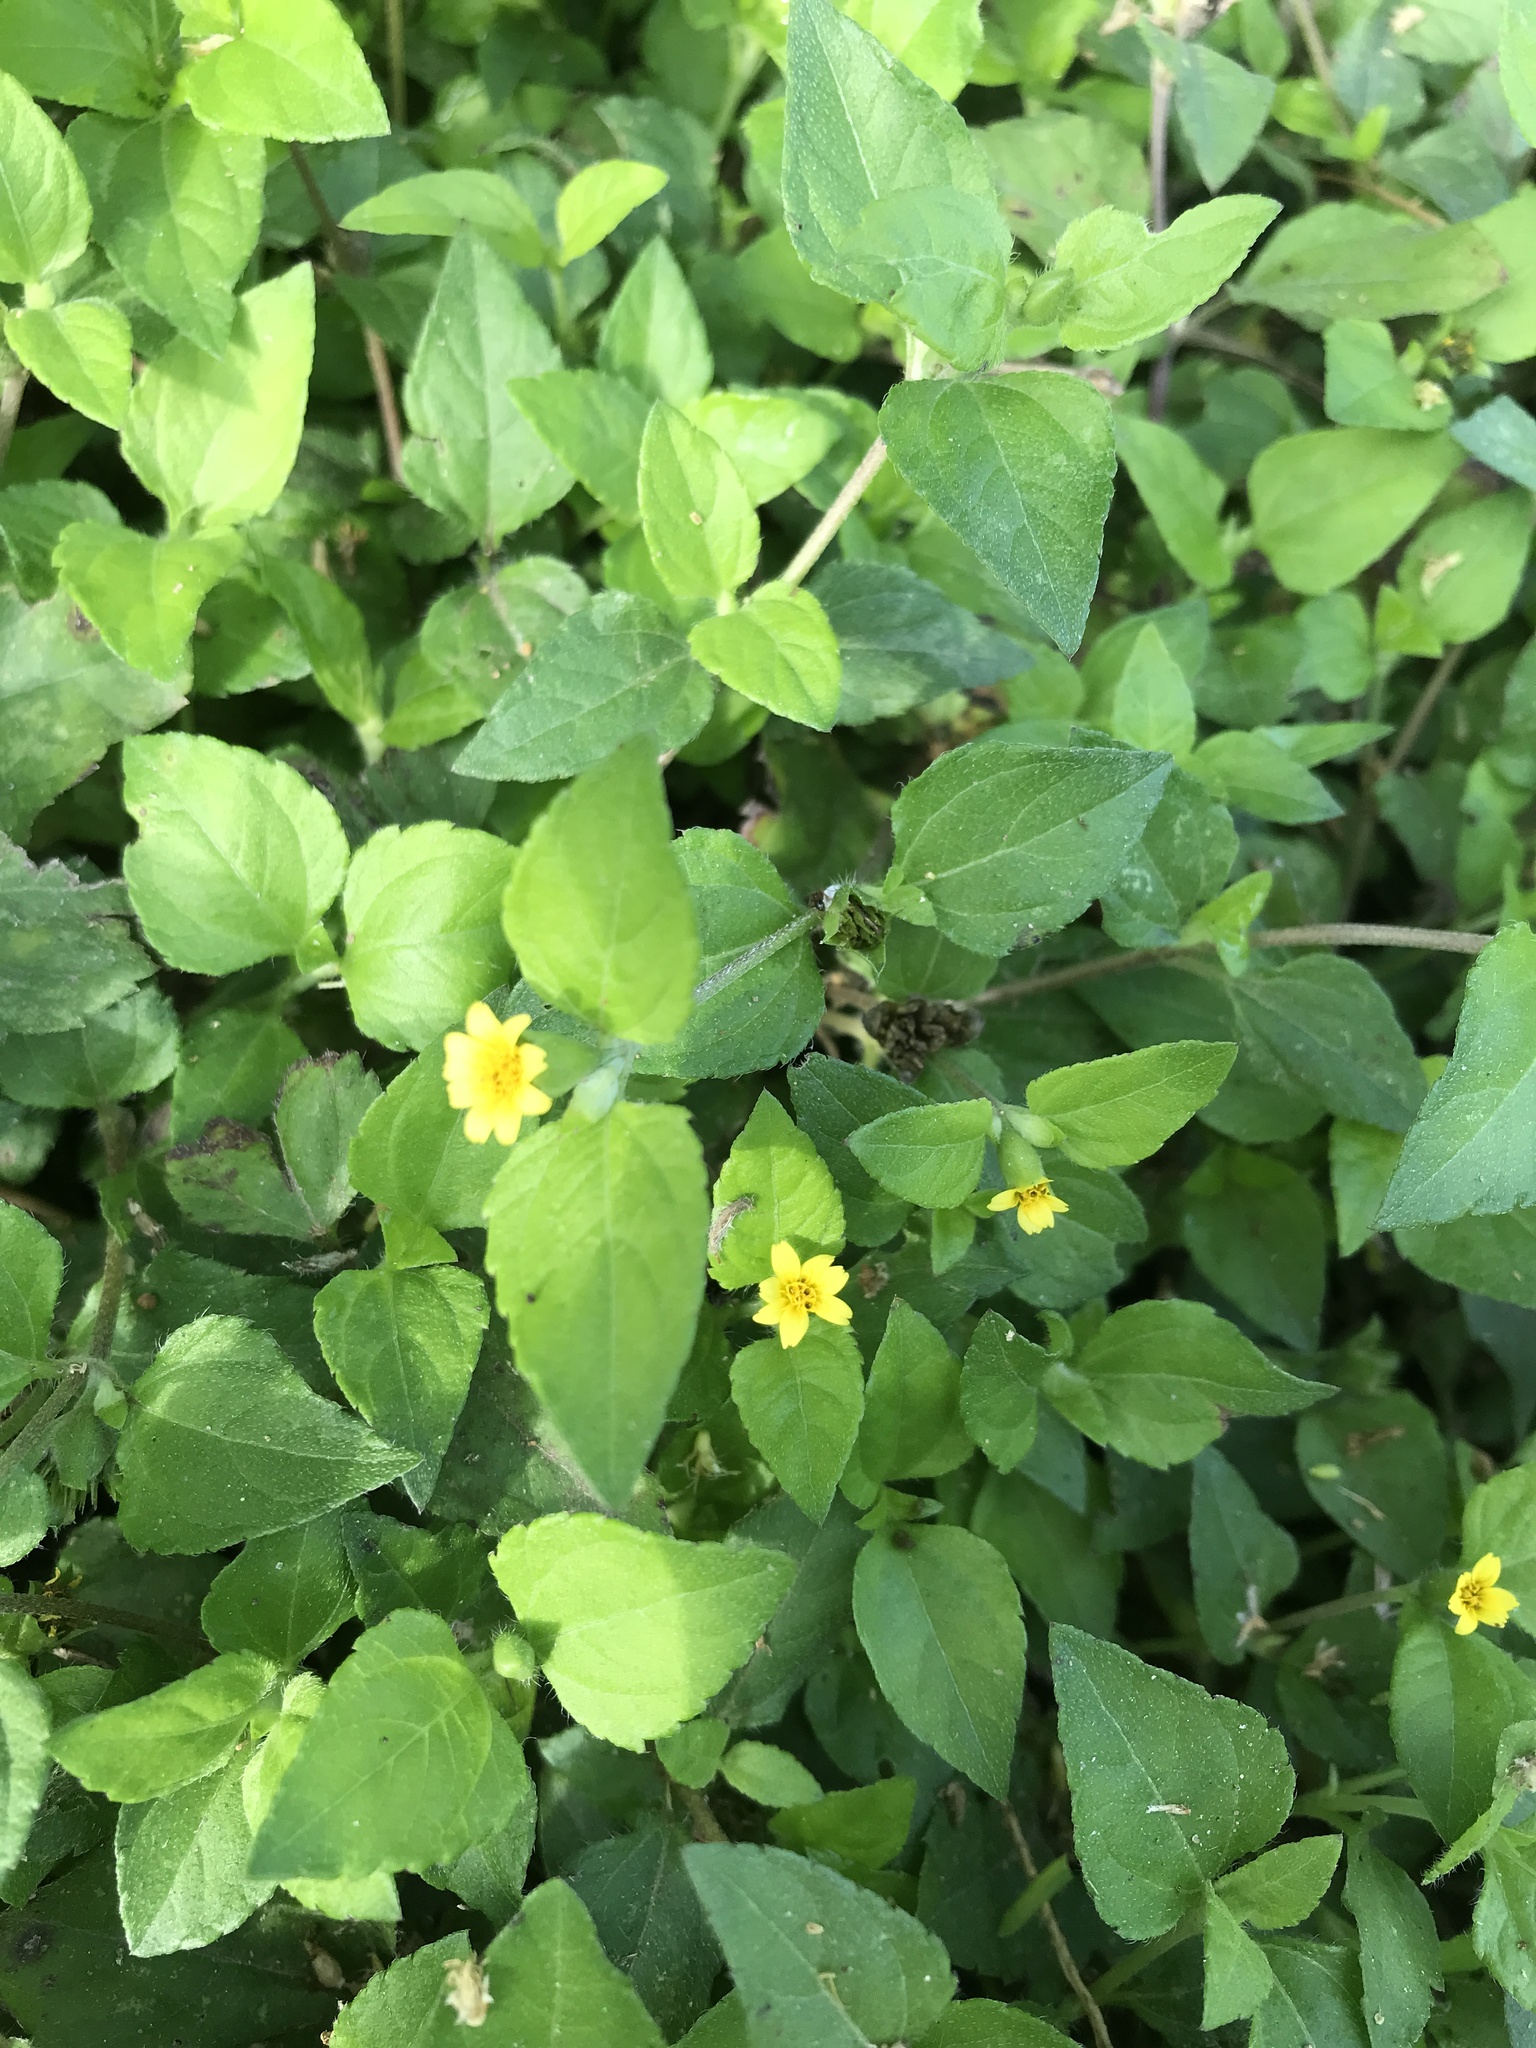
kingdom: Plantae
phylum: Tracheophyta
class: Magnoliopsida
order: Asterales
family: Asteraceae
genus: Calyptocarpus
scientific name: Calyptocarpus vialis
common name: Straggler daisy
